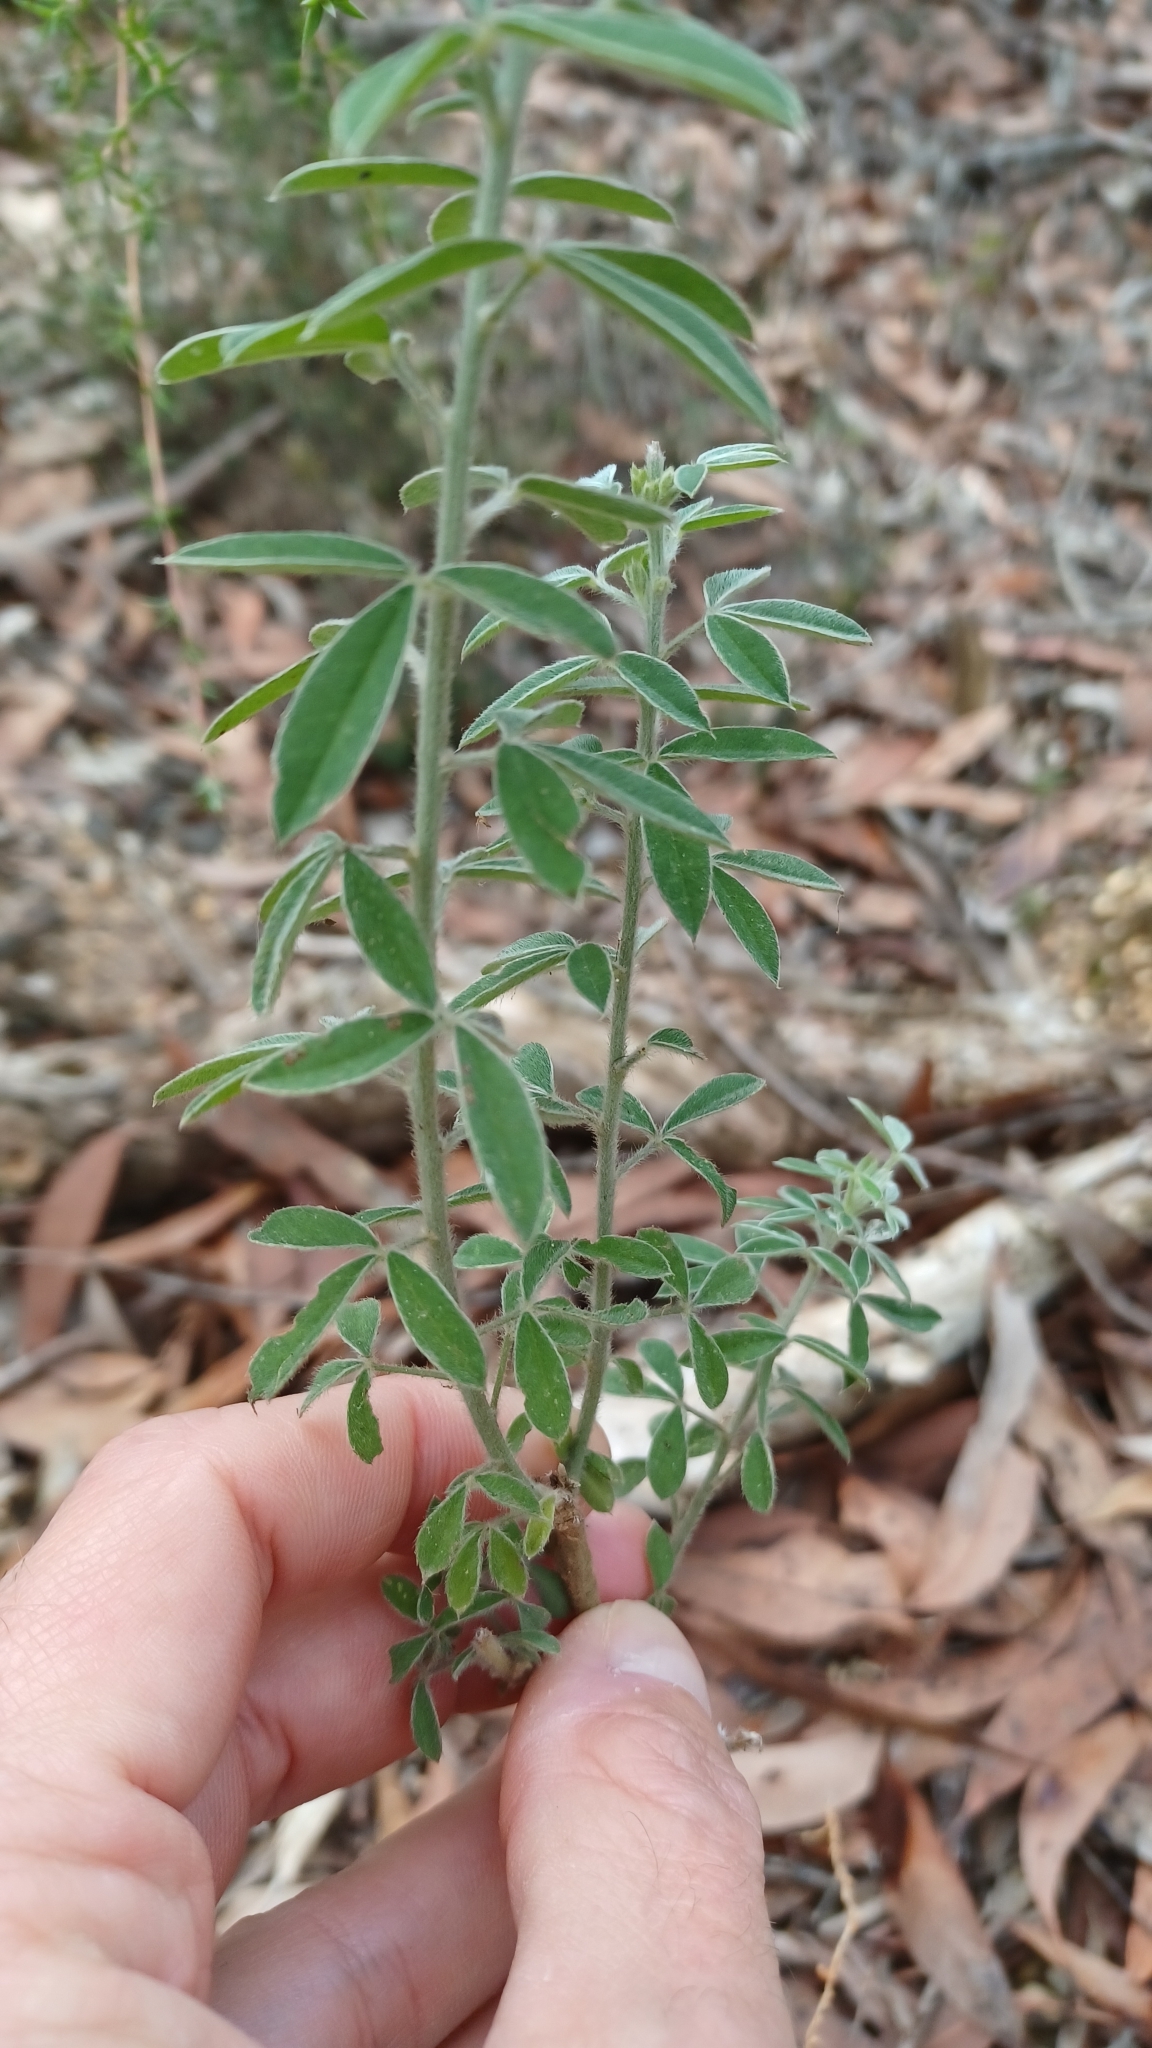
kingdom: Plantae
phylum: Tracheophyta
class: Magnoliopsida
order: Fabales
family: Fabaceae
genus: Genista
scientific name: Genista monspessulana
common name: Montpellier broom
